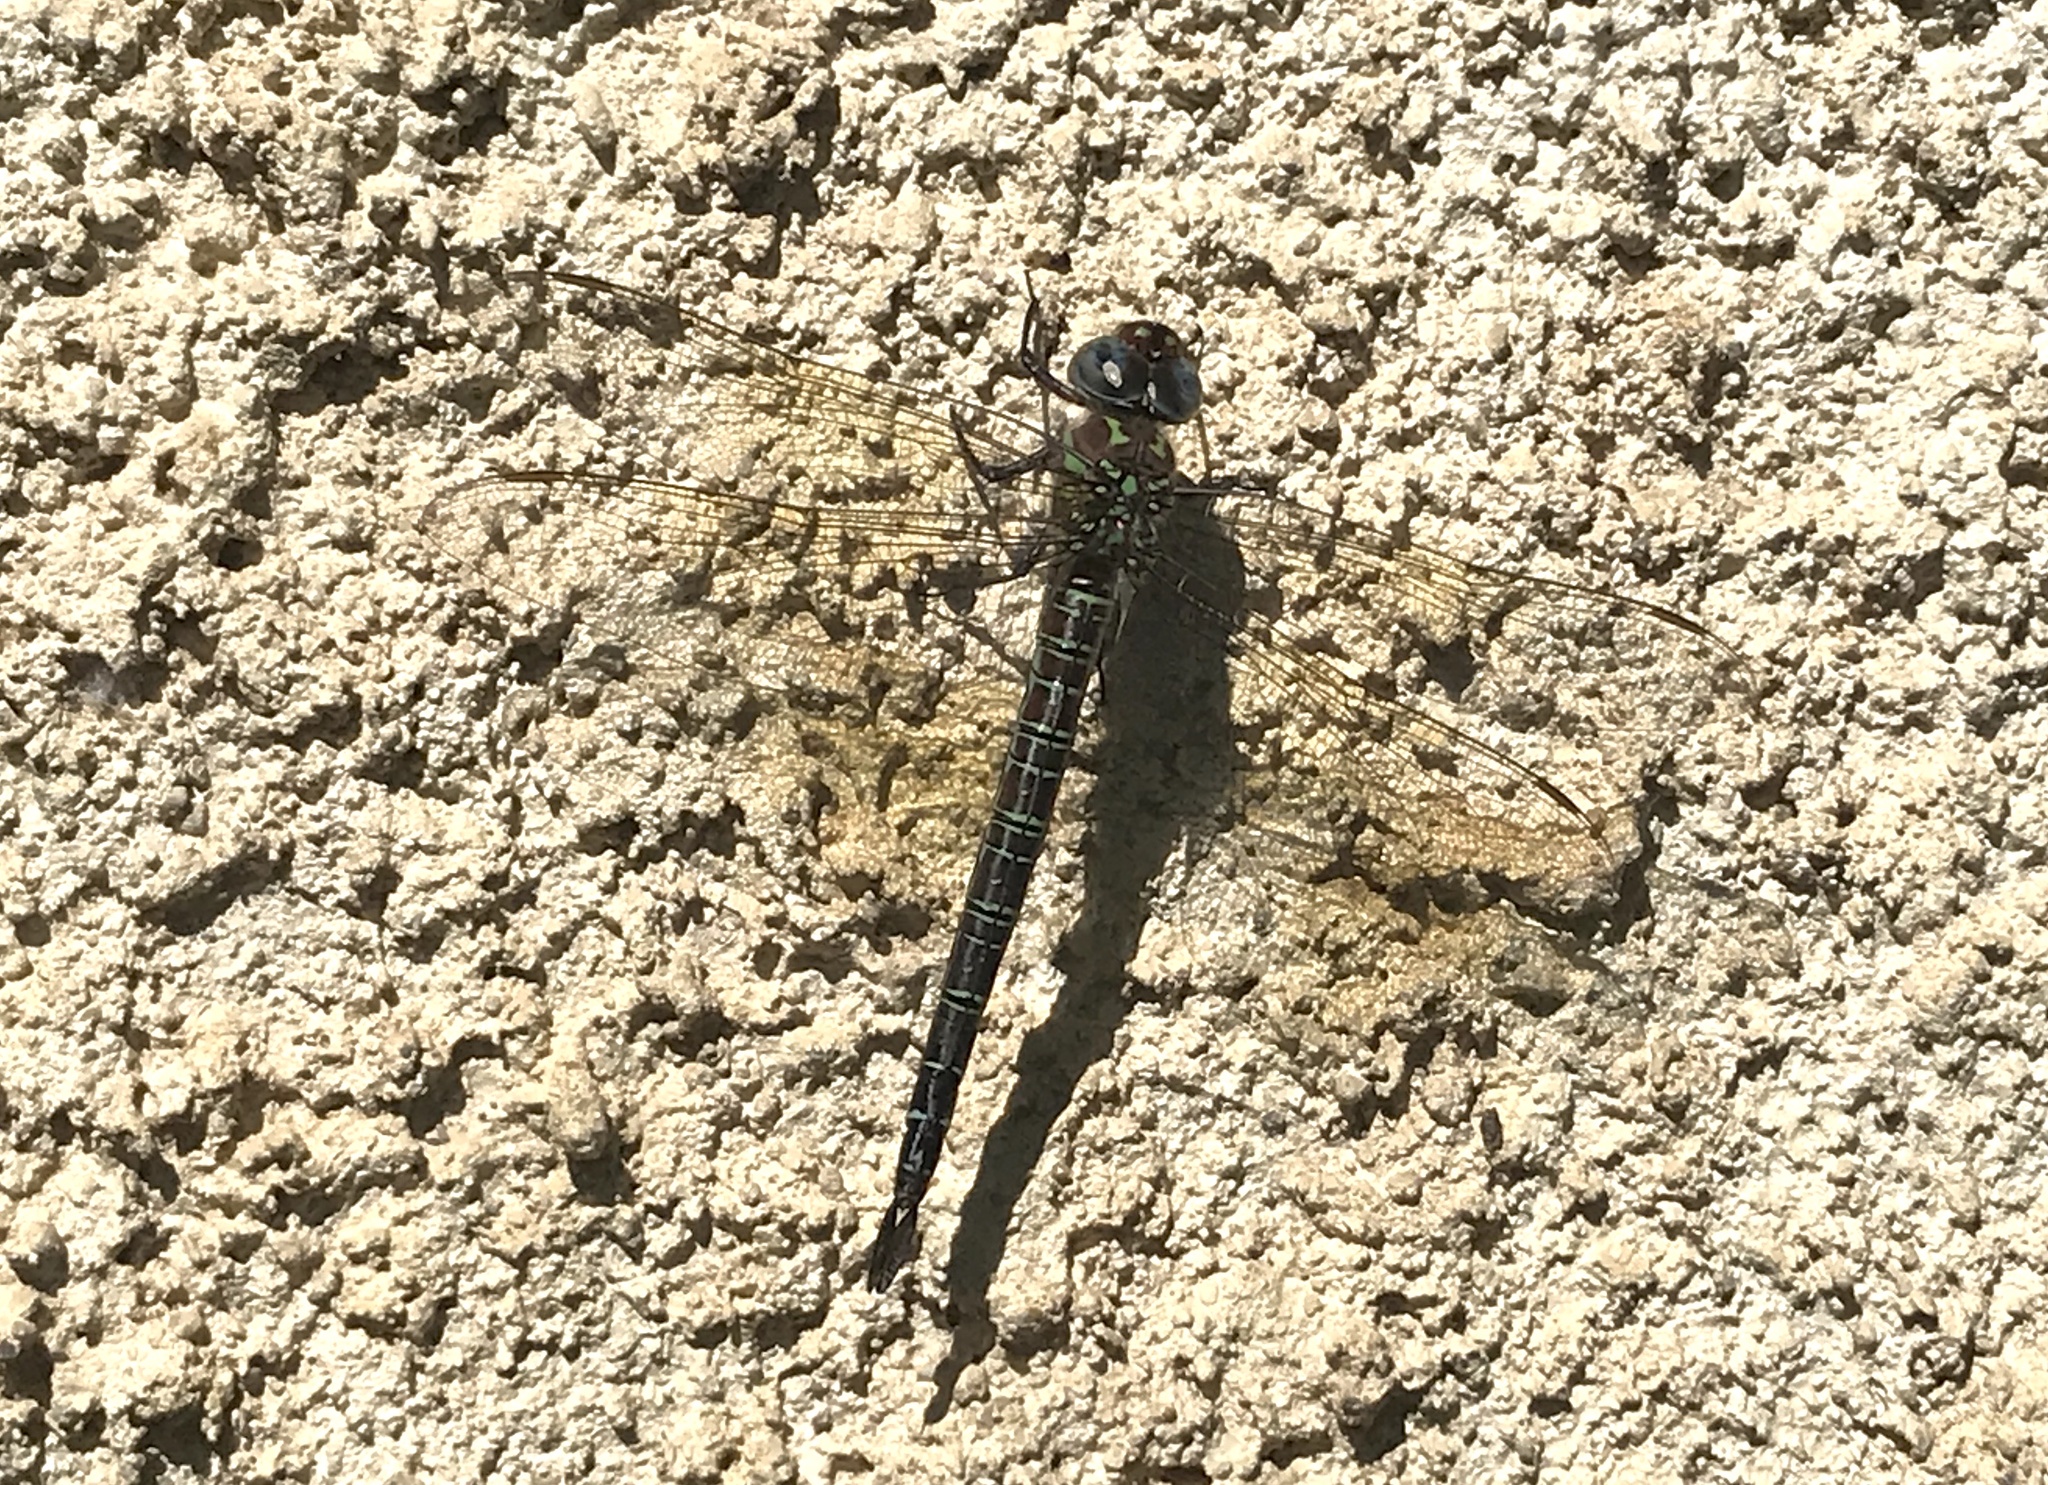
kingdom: Animalia
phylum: Arthropoda
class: Insecta
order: Odonata
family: Aeshnidae
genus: Epiaeschna
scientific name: Epiaeschna heros
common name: Swamp darner
